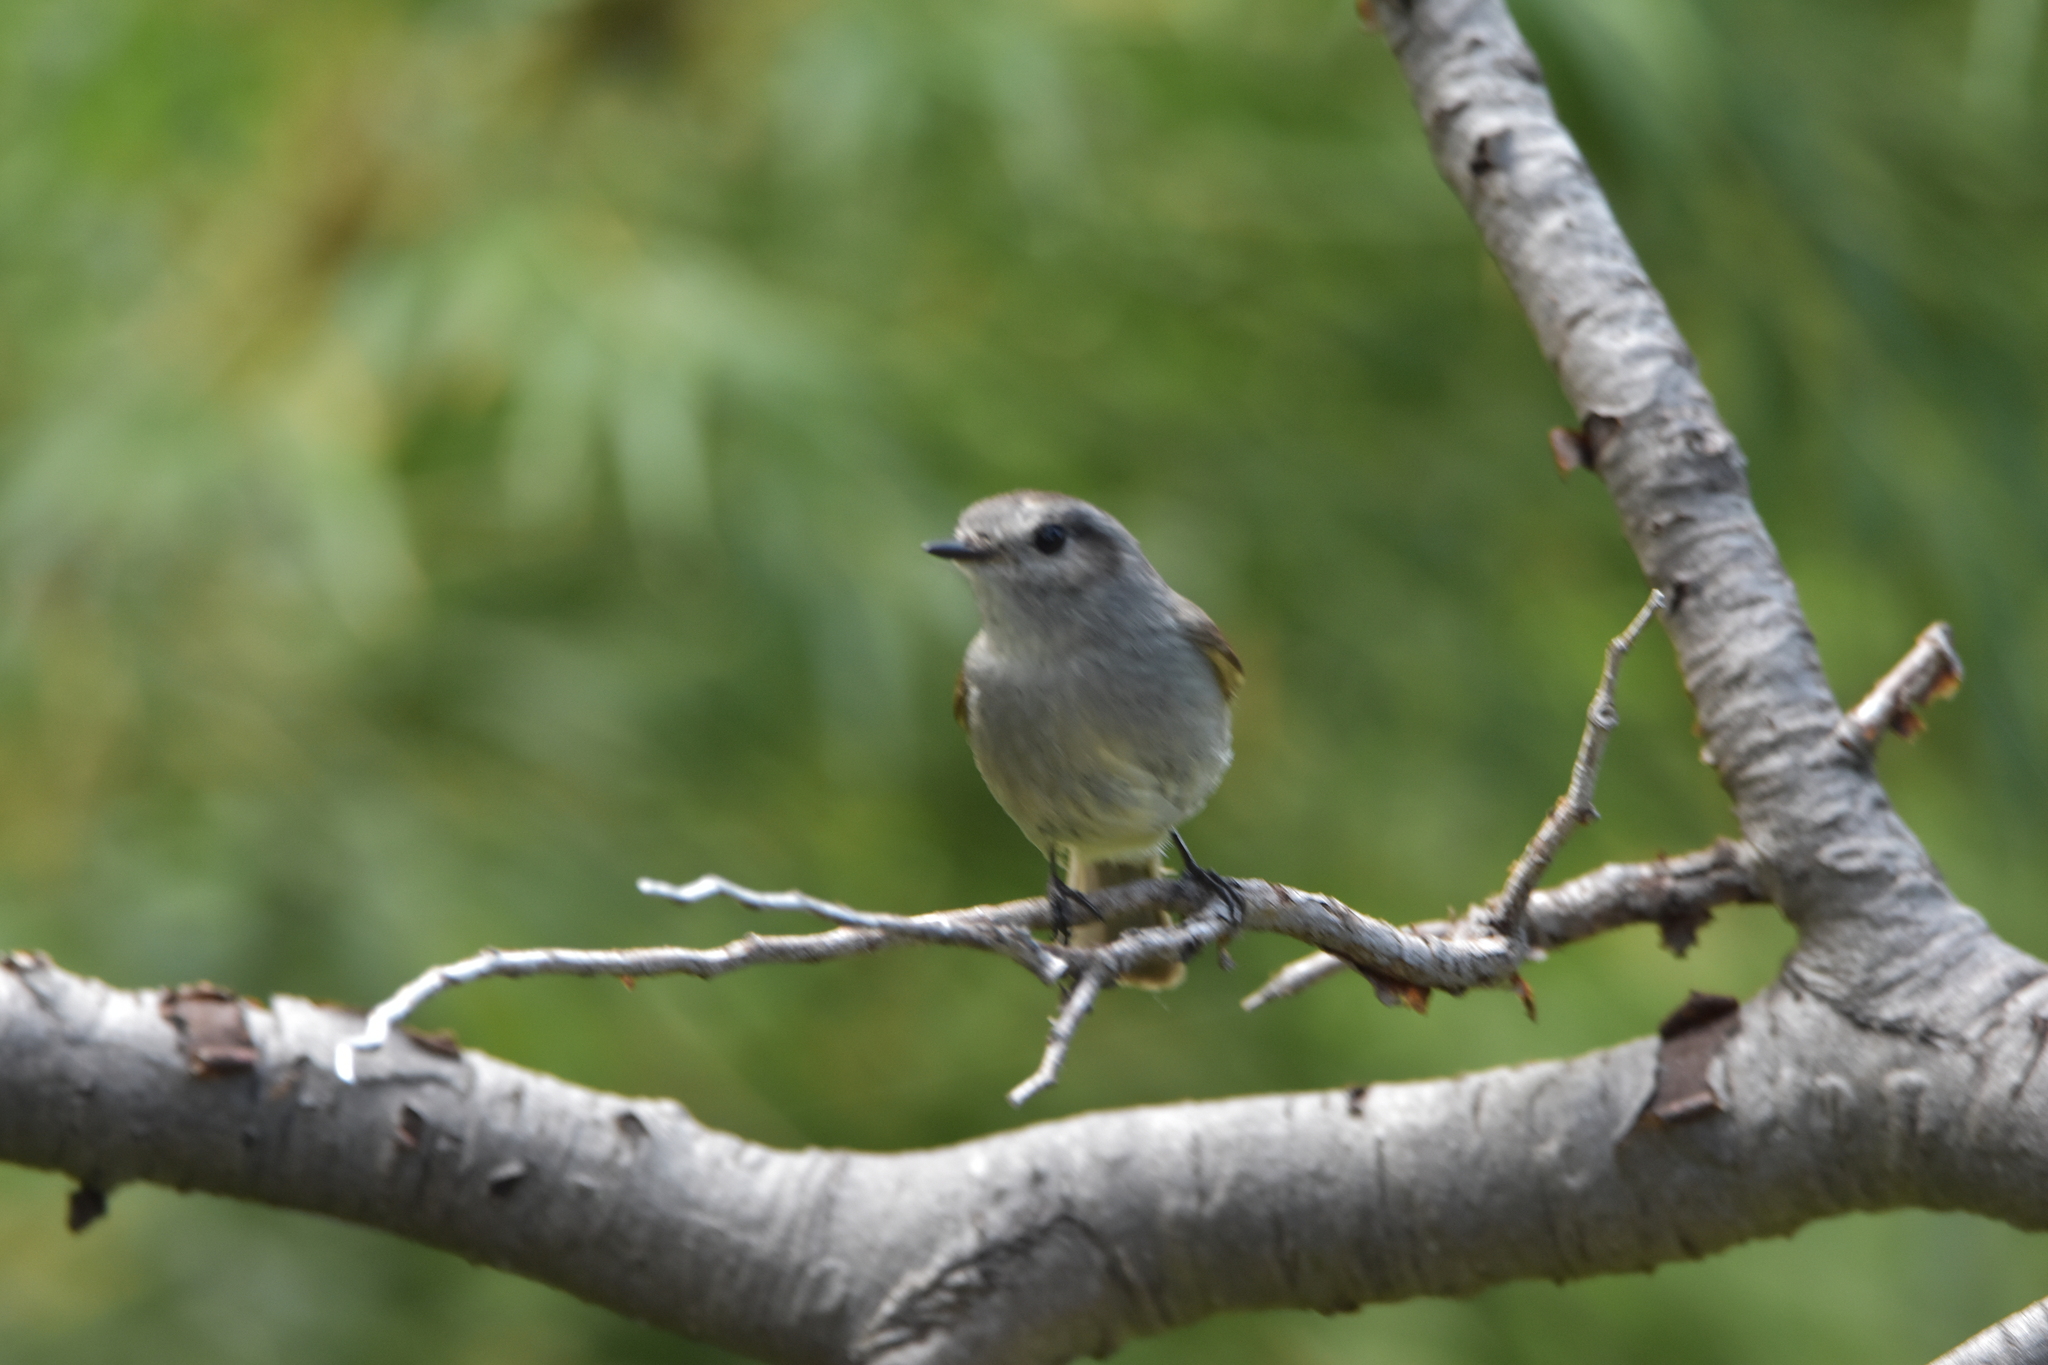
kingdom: Animalia
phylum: Chordata
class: Aves
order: Passeriformes
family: Tyrannidae
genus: Colorhamphus
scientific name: Colorhamphus parvirostris
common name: Patagonian tyrant
